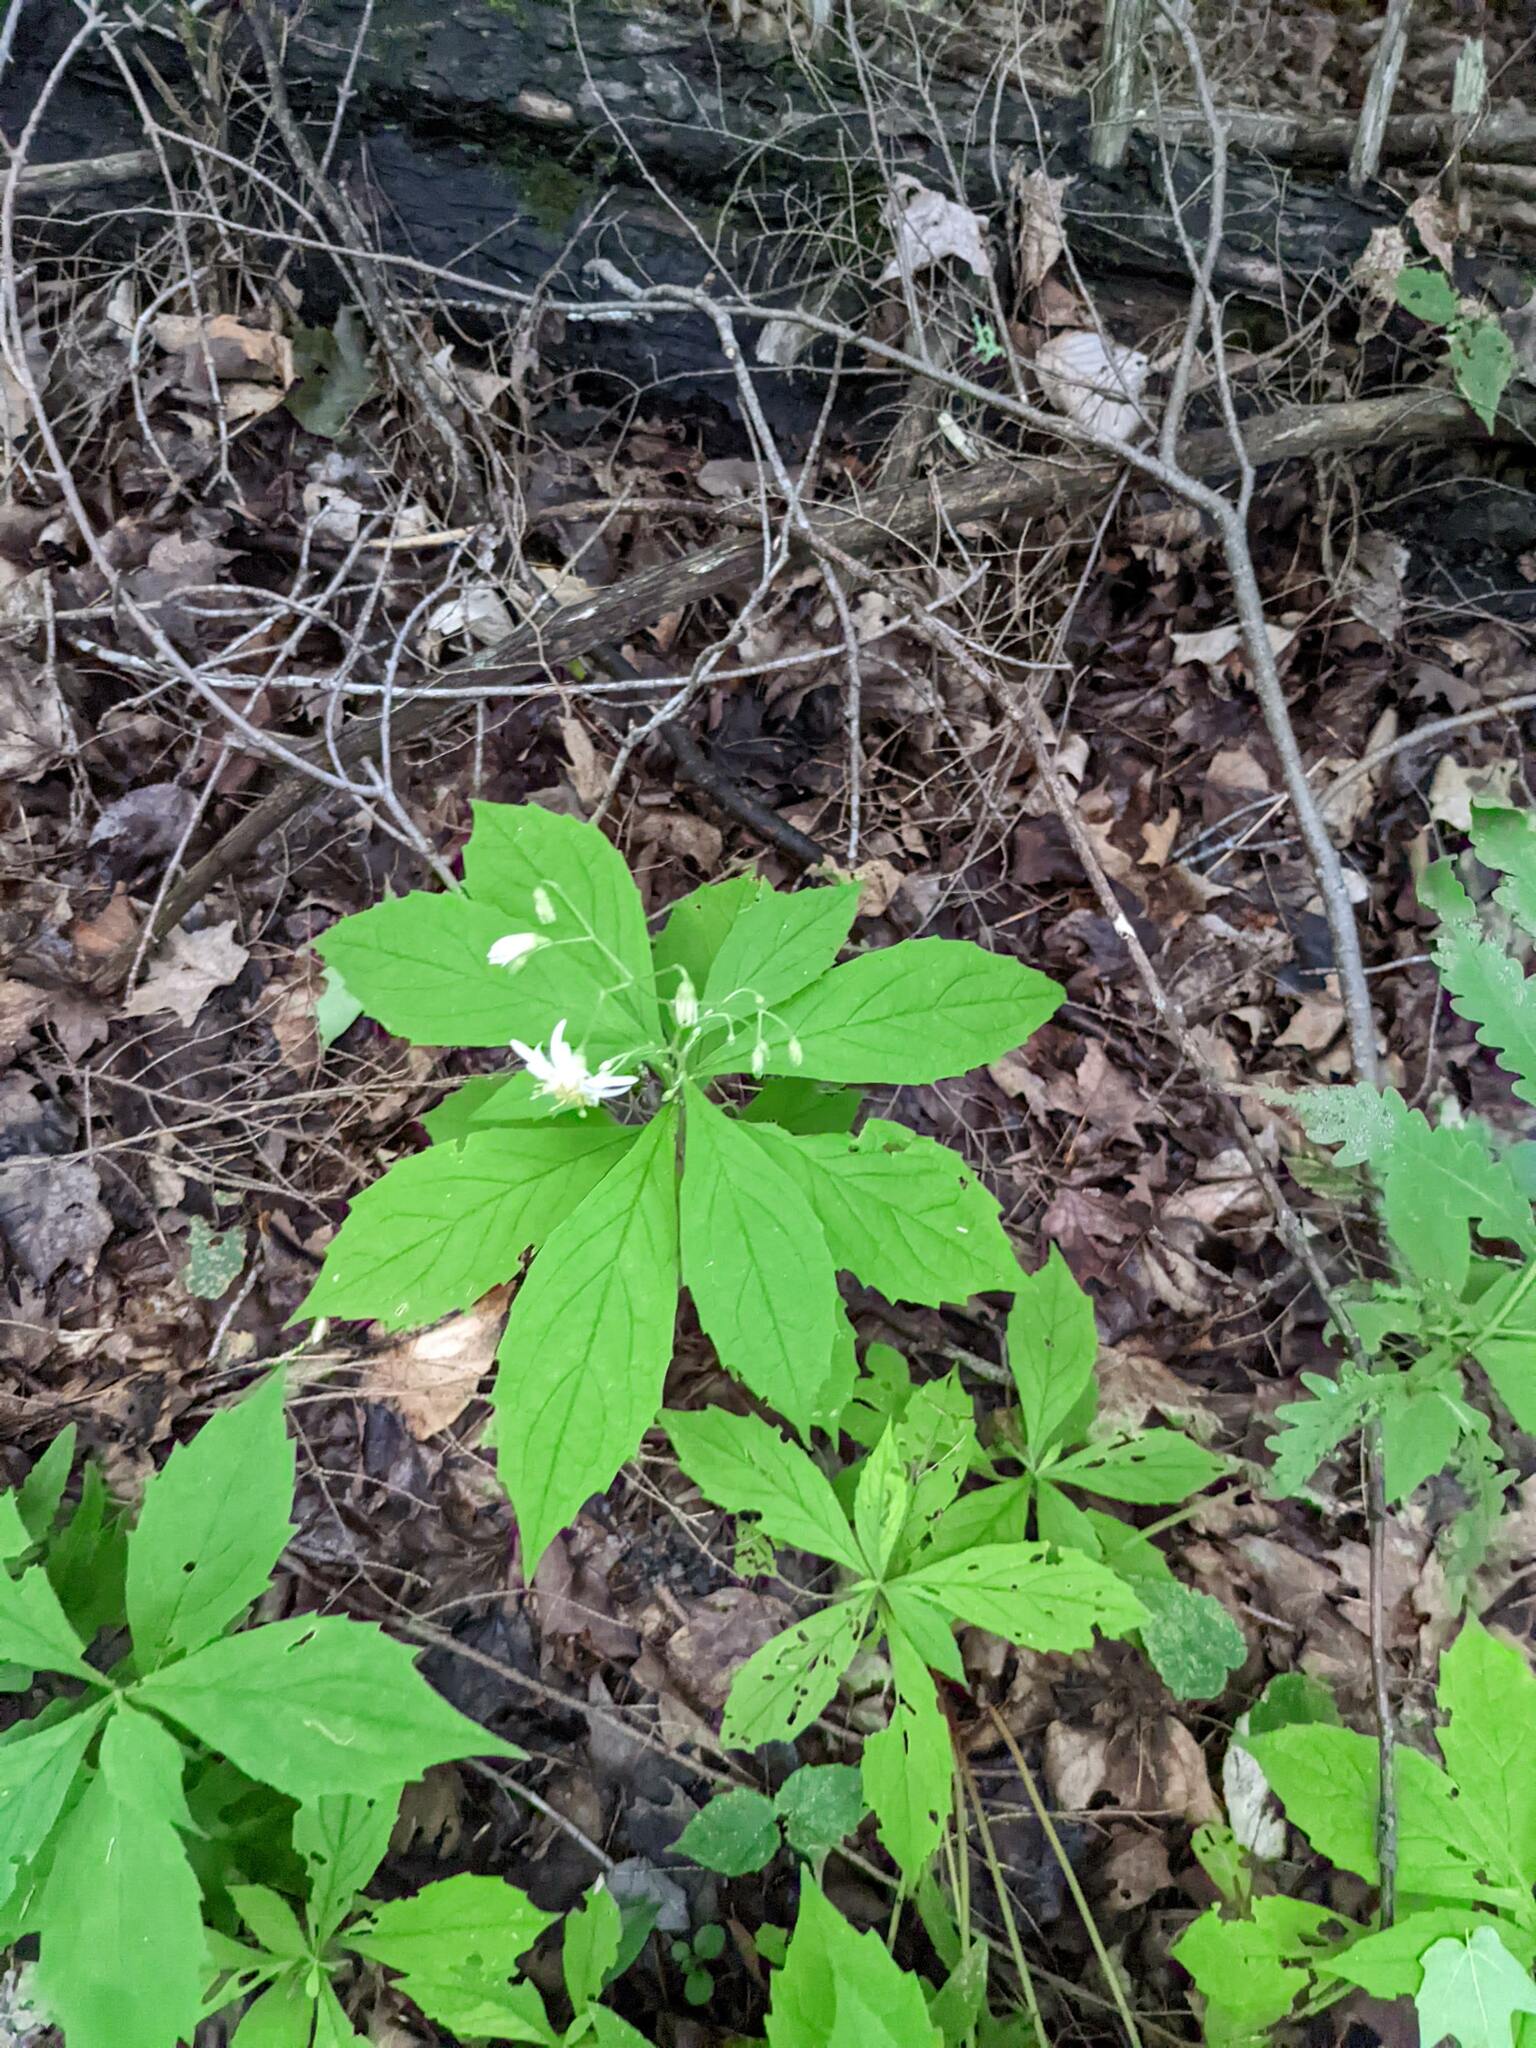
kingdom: Plantae
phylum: Tracheophyta
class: Magnoliopsida
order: Asterales
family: Asteraceae
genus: Oclemena
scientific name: Oclemena acuminata
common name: Mountain aster
